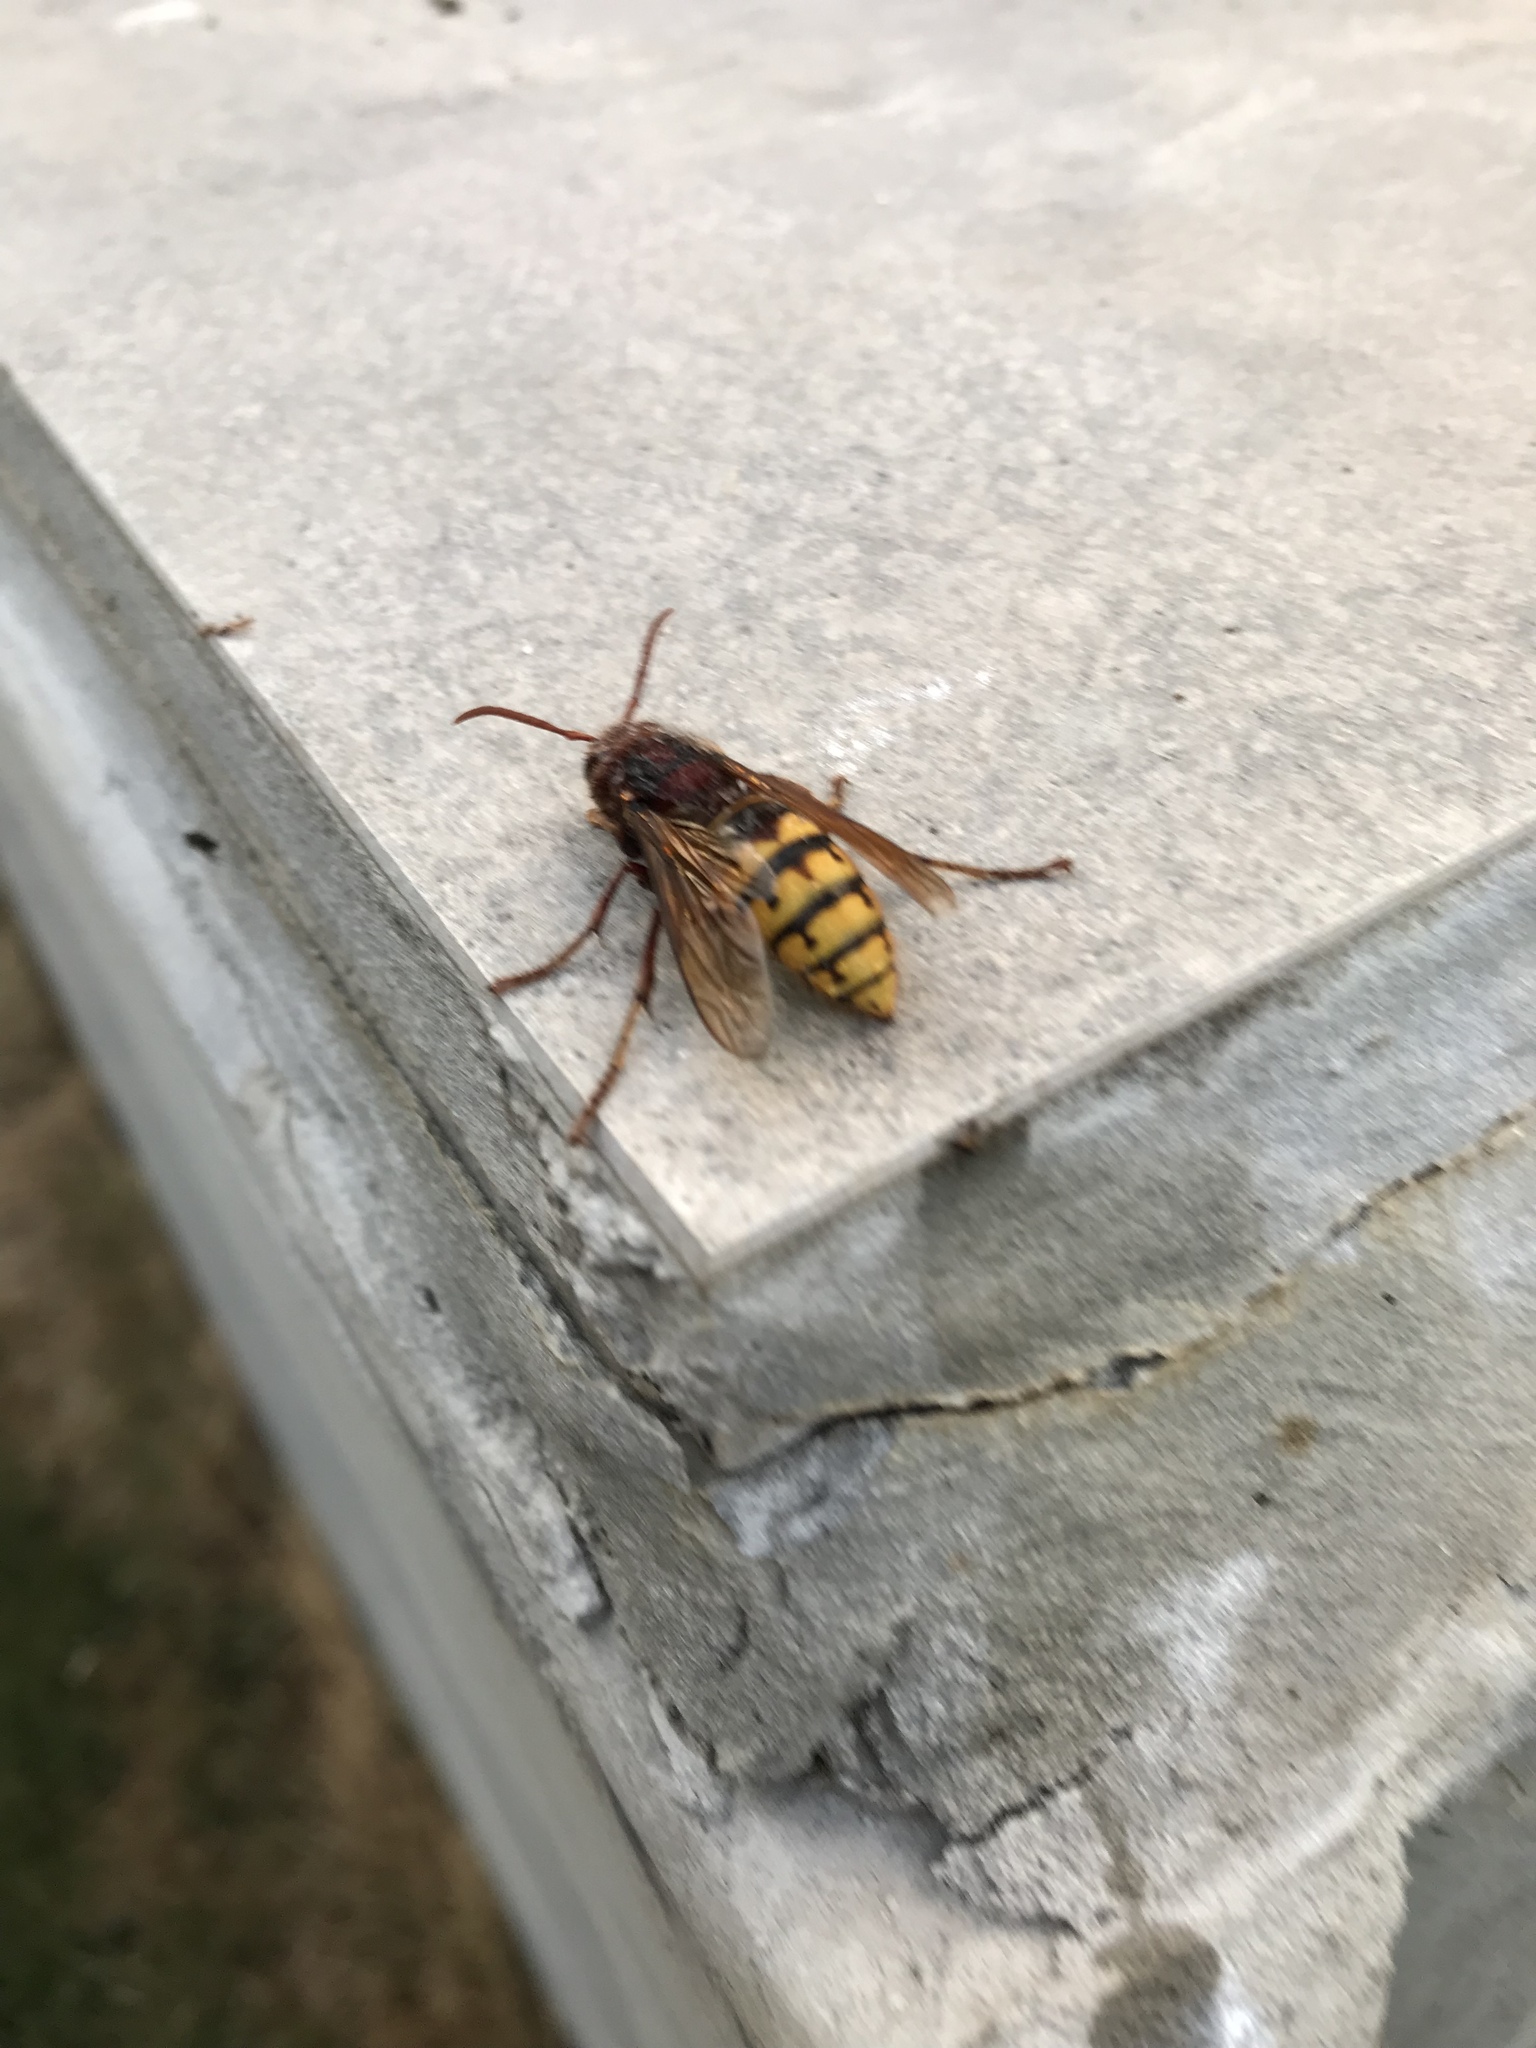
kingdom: Animalia
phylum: Arthropoda
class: Insecta
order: Hymenoptera
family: Vespidae
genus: Vespa
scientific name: Vespa crabro
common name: Hornet
